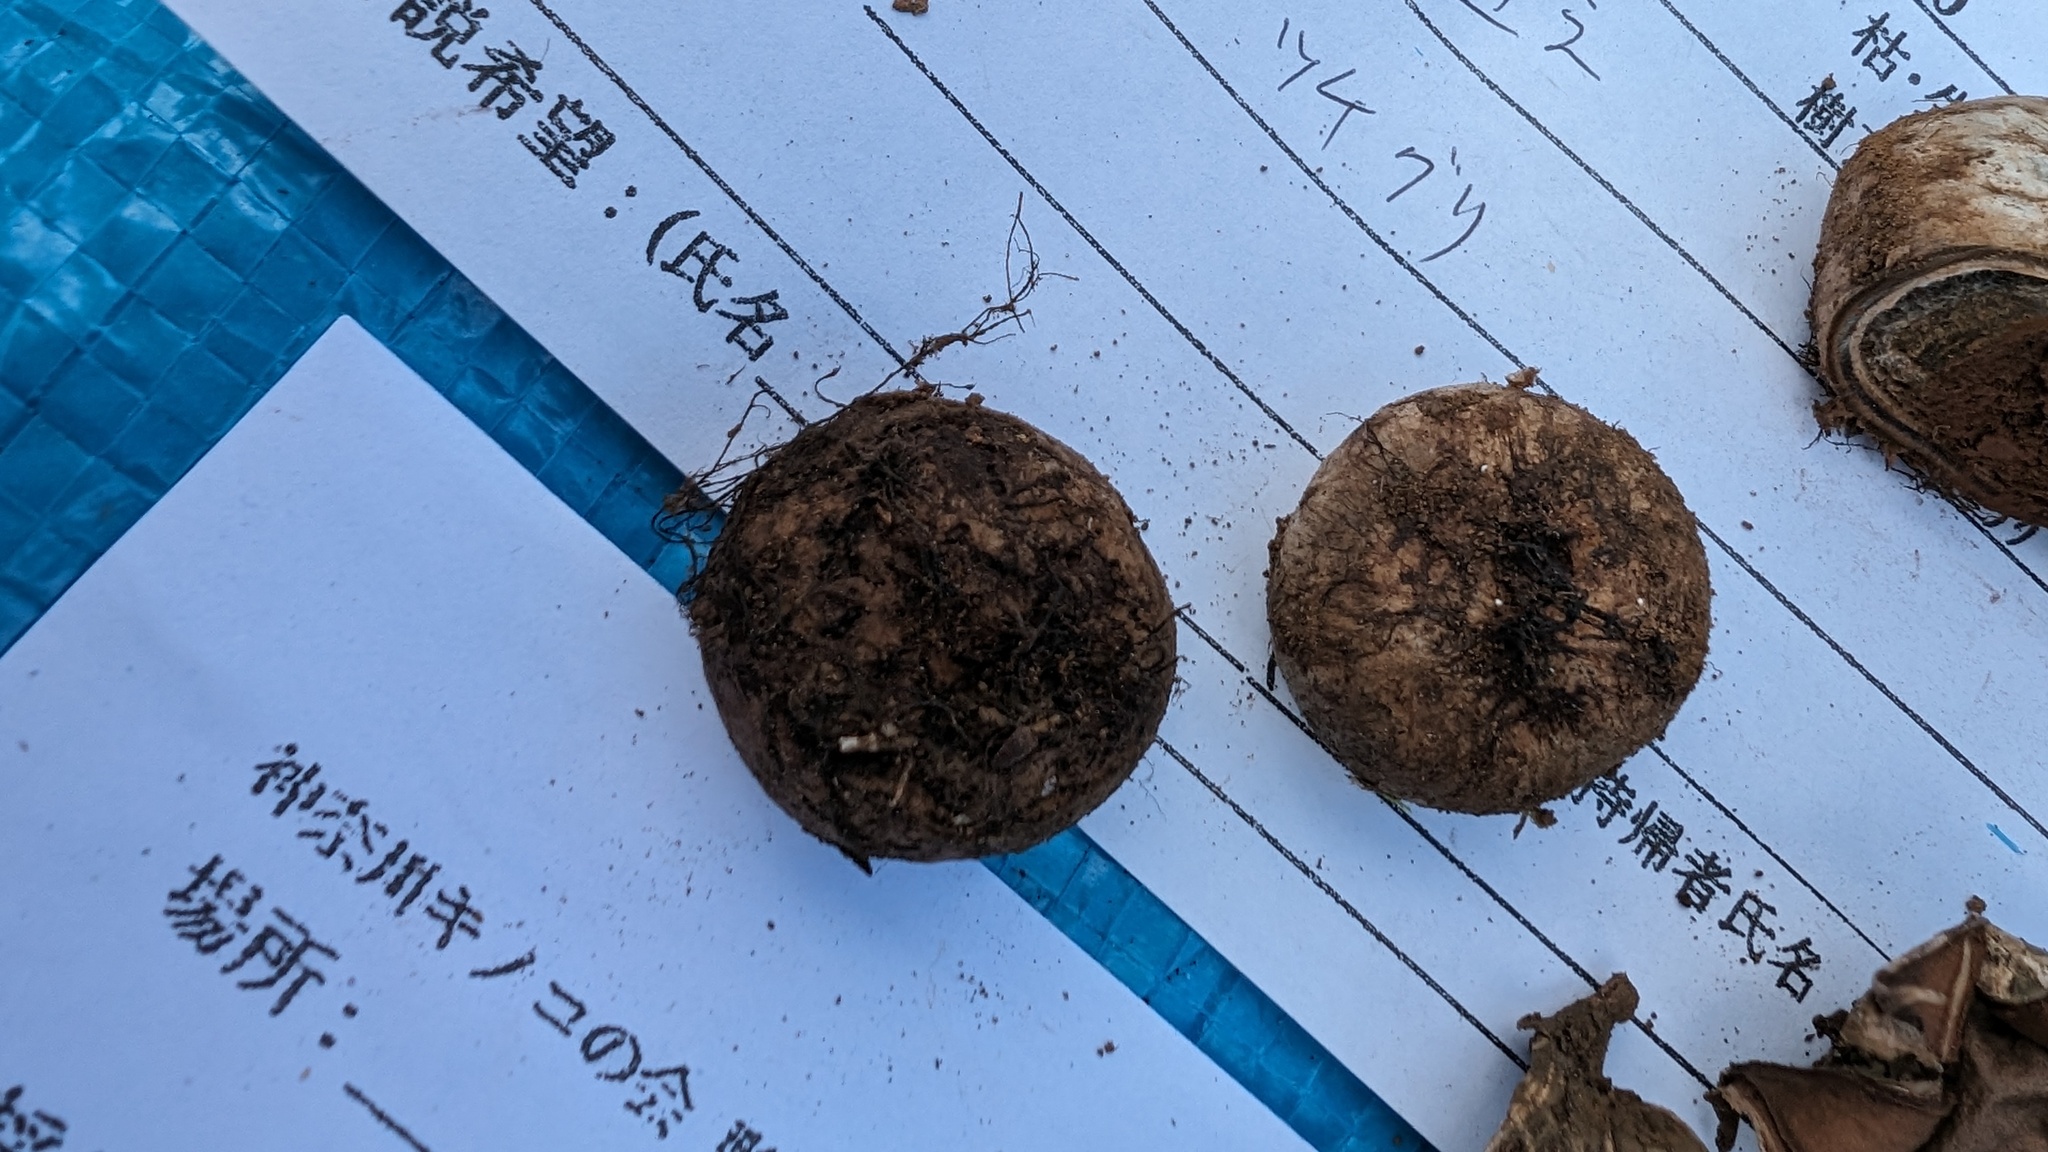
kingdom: Fungi
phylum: Basidiomycota
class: Agaricomycetes
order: Boletales
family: Diplocystidiaceae
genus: Astraeus
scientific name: Astraeus hygrometricus
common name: Barometer earthstar
